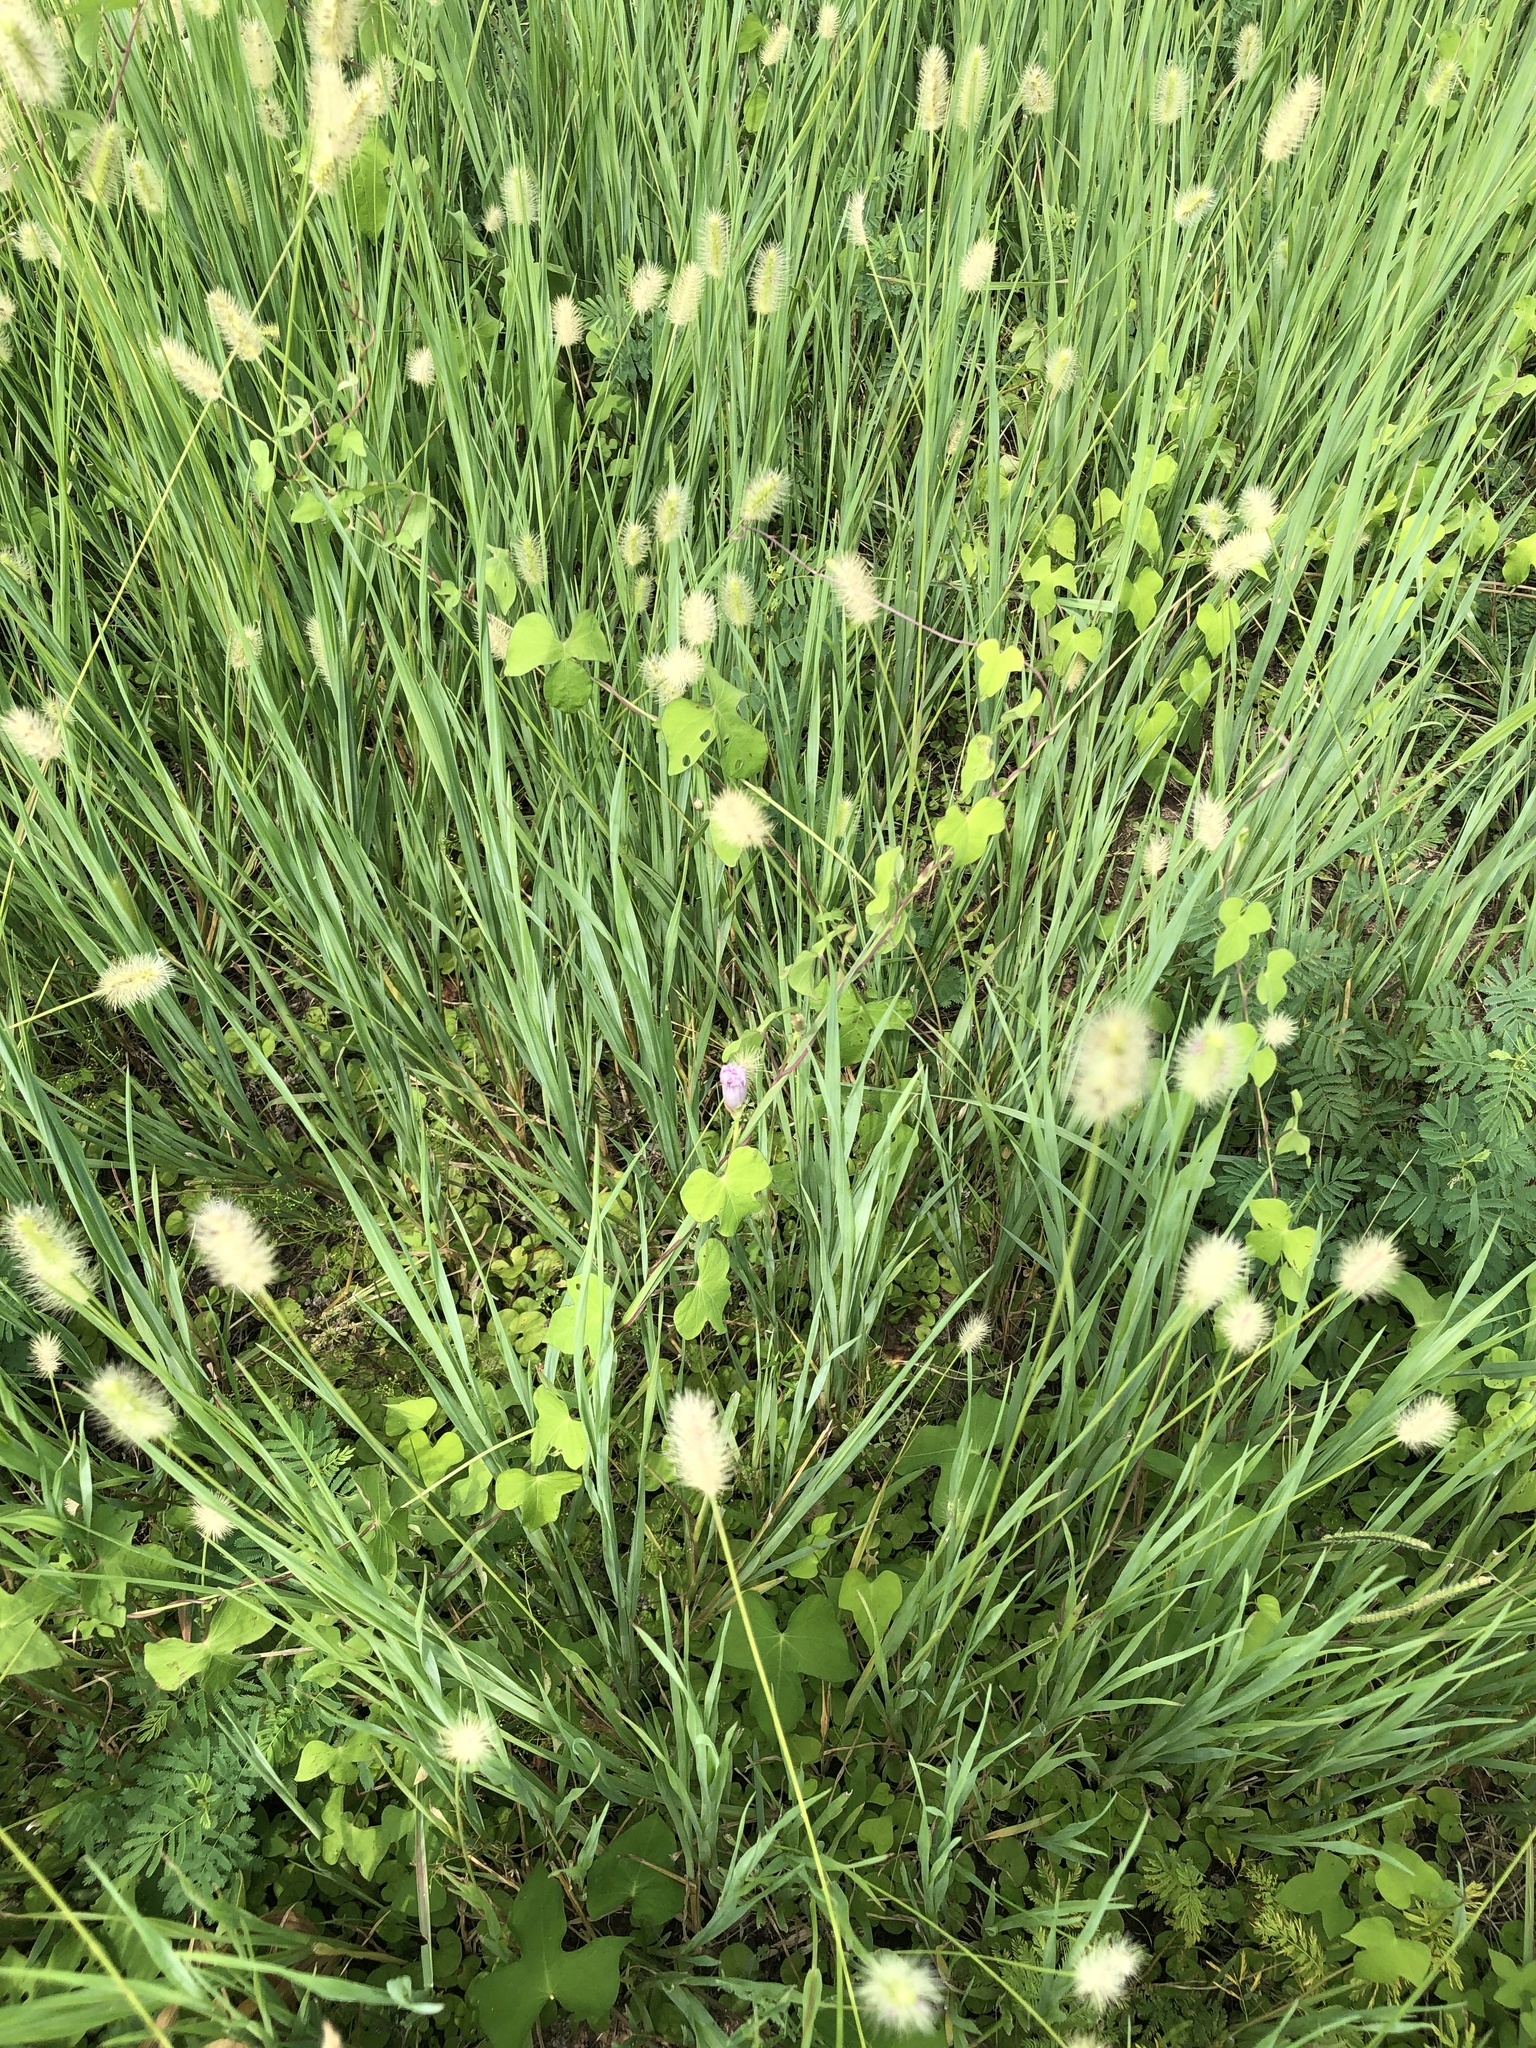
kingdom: Plantae
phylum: Tracheophyta
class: Magnoliopsida
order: Solanales
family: Convolvulaceae
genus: Ipomoea
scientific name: Ipomoea cordatotriloba
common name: Cotton morning glory
